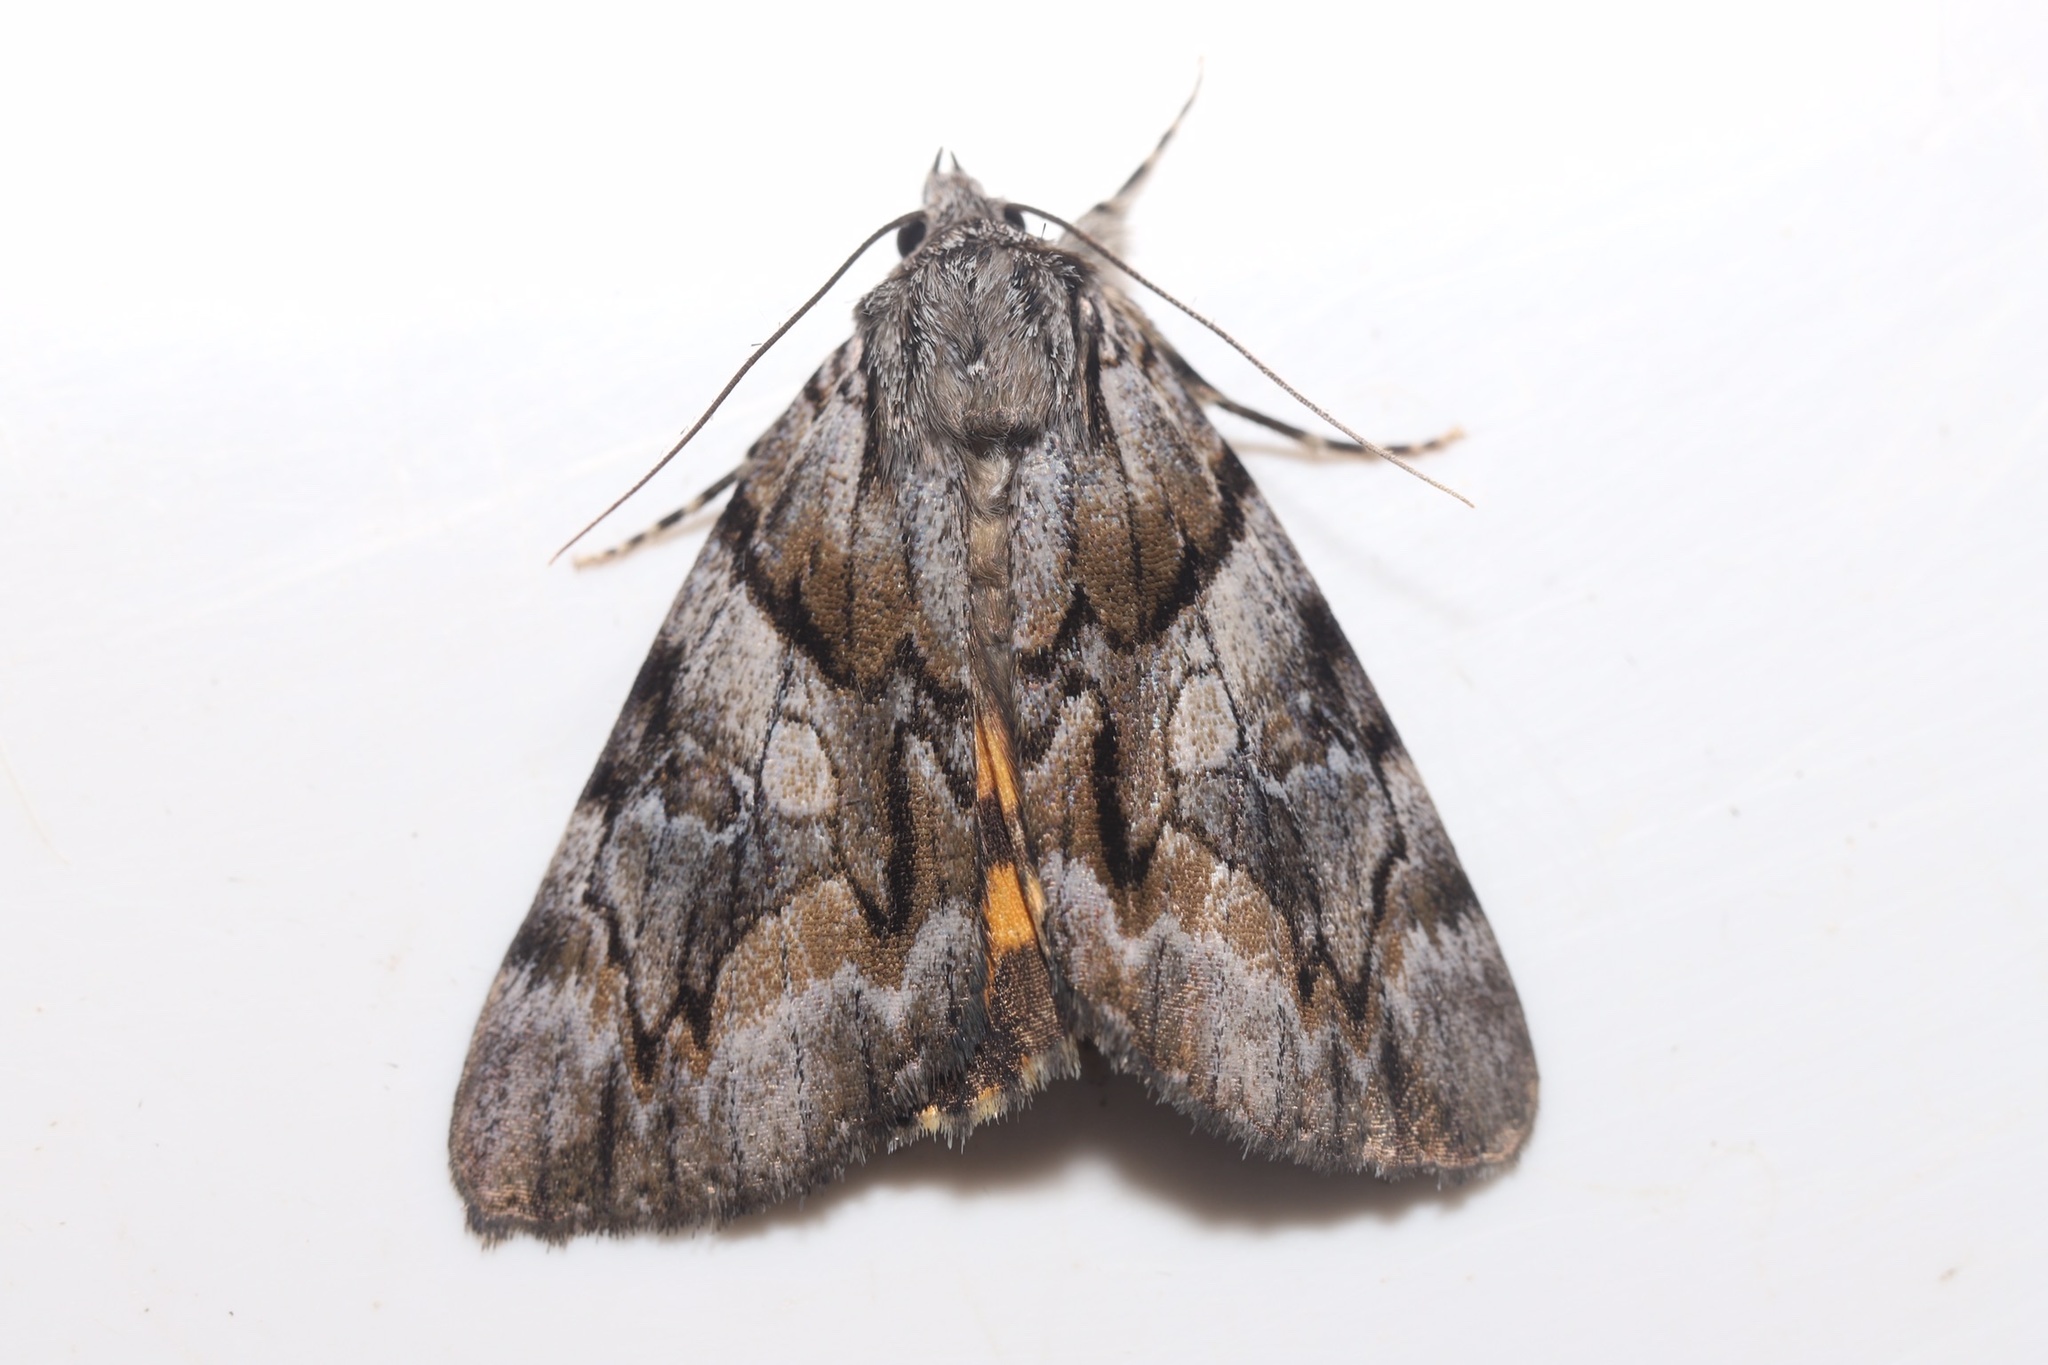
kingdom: Animalia
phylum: Arthropoda
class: Insecta
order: Lepidoptera
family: Erebidae
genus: Catocala
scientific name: Catocala blandula
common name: Charming underwing
